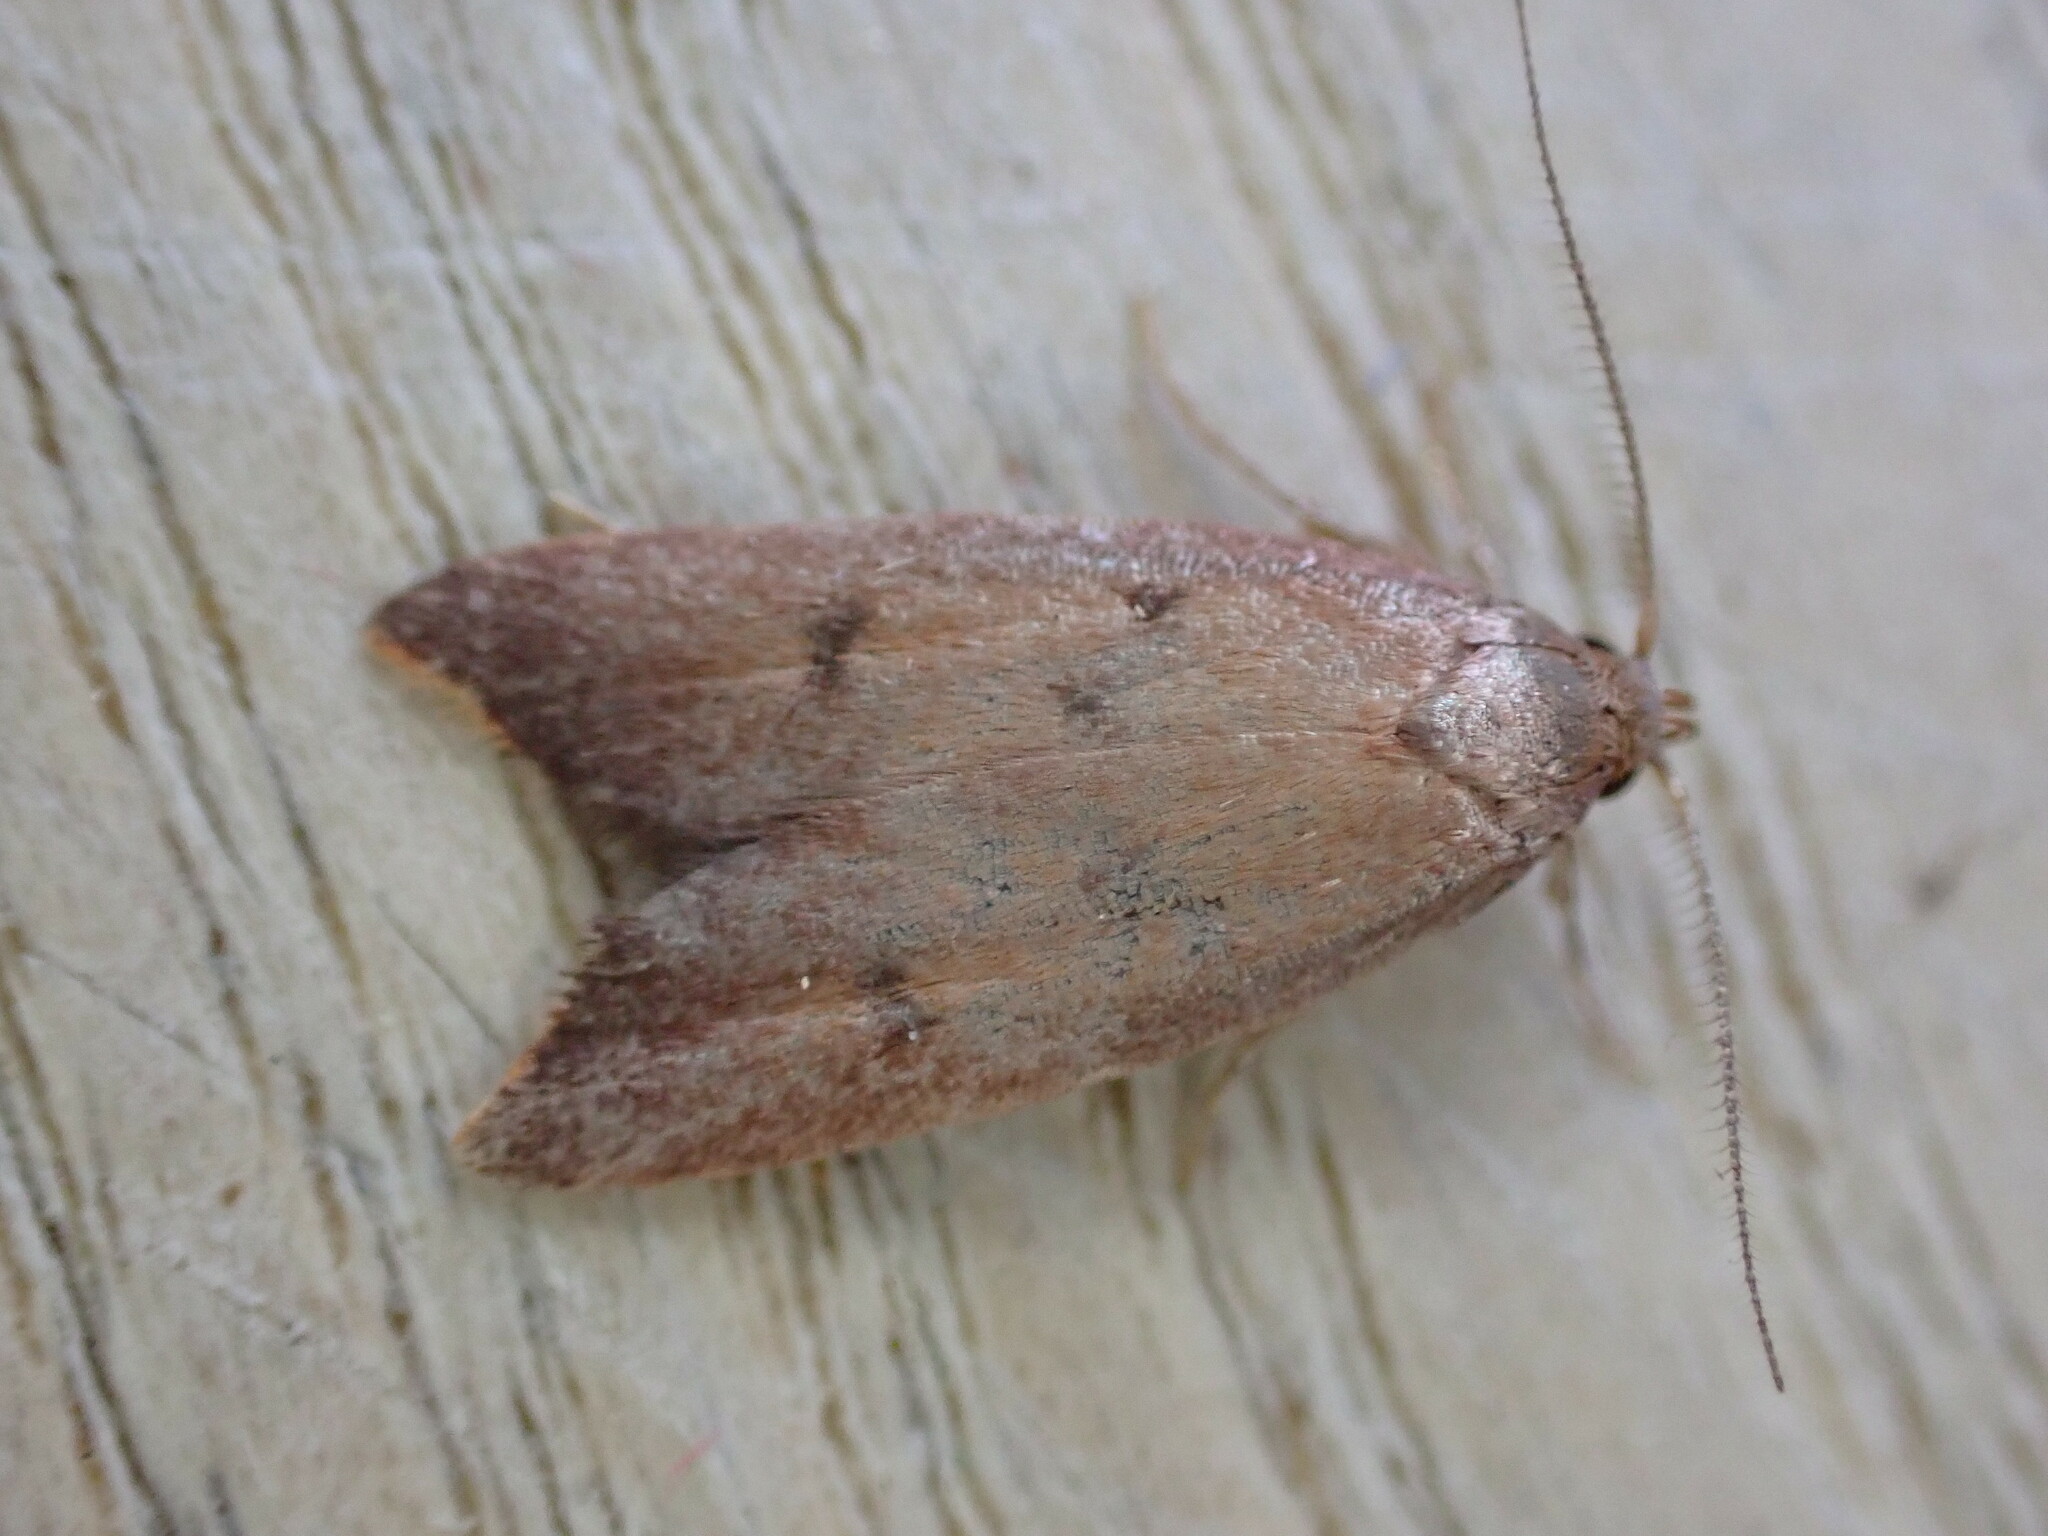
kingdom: Animalia
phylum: Arthropoda
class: Insecta
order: Lepidoptera
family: Oecophoridae
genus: Tachystola
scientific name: Tachystola acroxantha
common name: Ruddy streak
